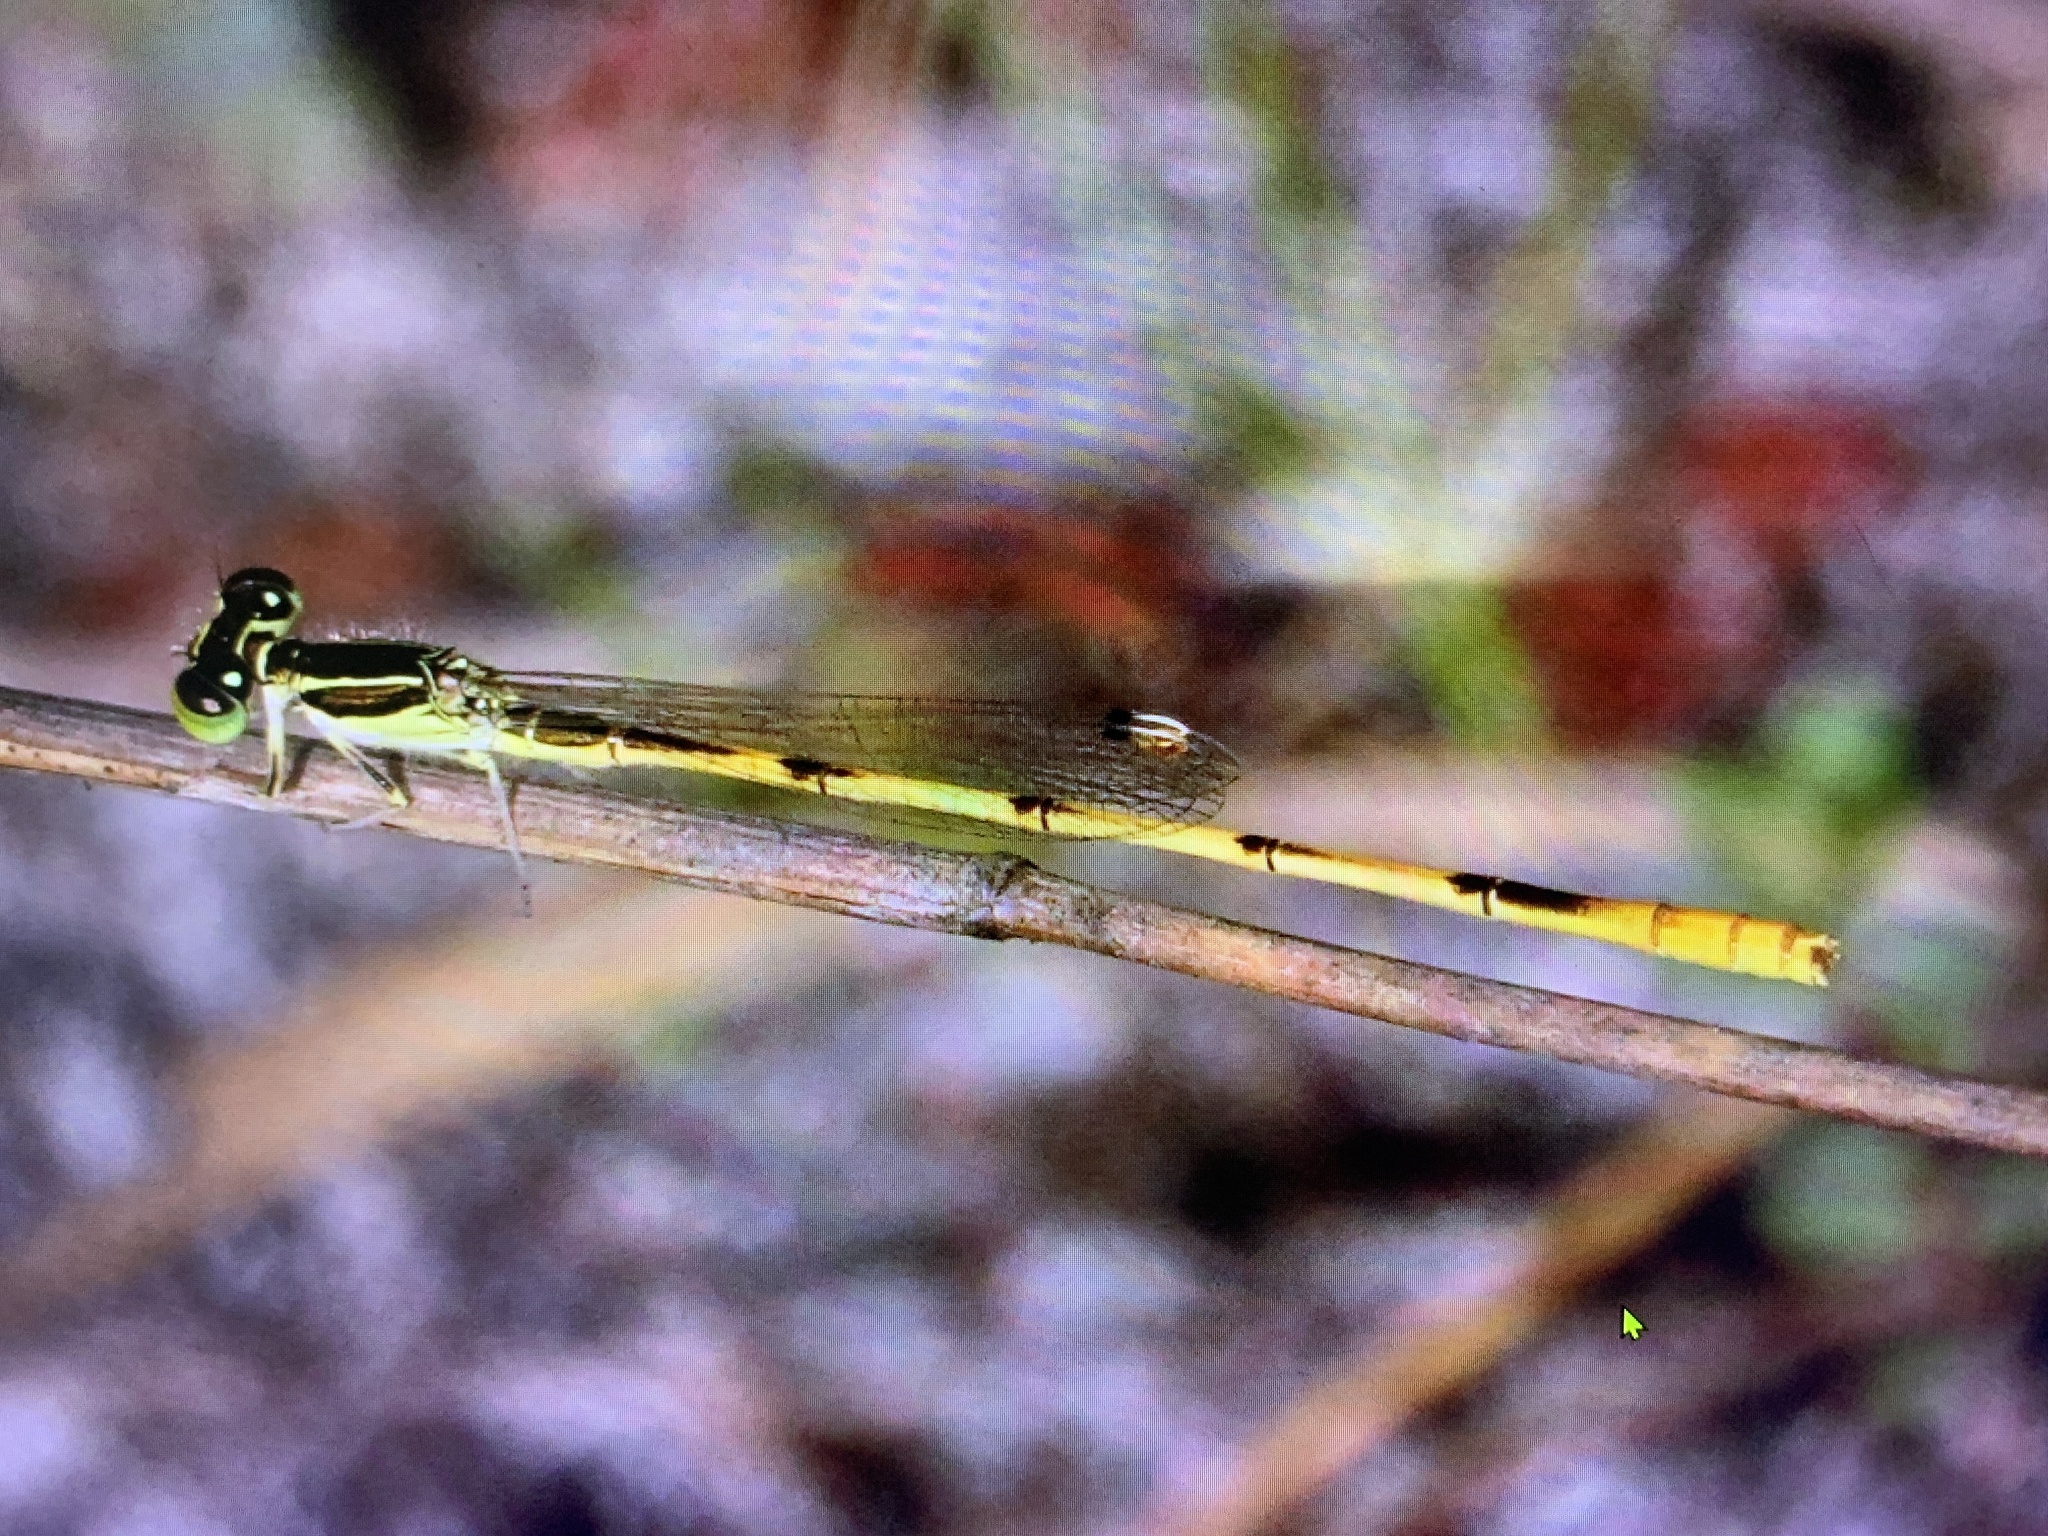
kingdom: Animalia
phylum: Arthropoda
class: Insecta
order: Odonata
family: Coenagrionidae
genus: Ischnura
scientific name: Ischnura hastata
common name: Citrine forktail
